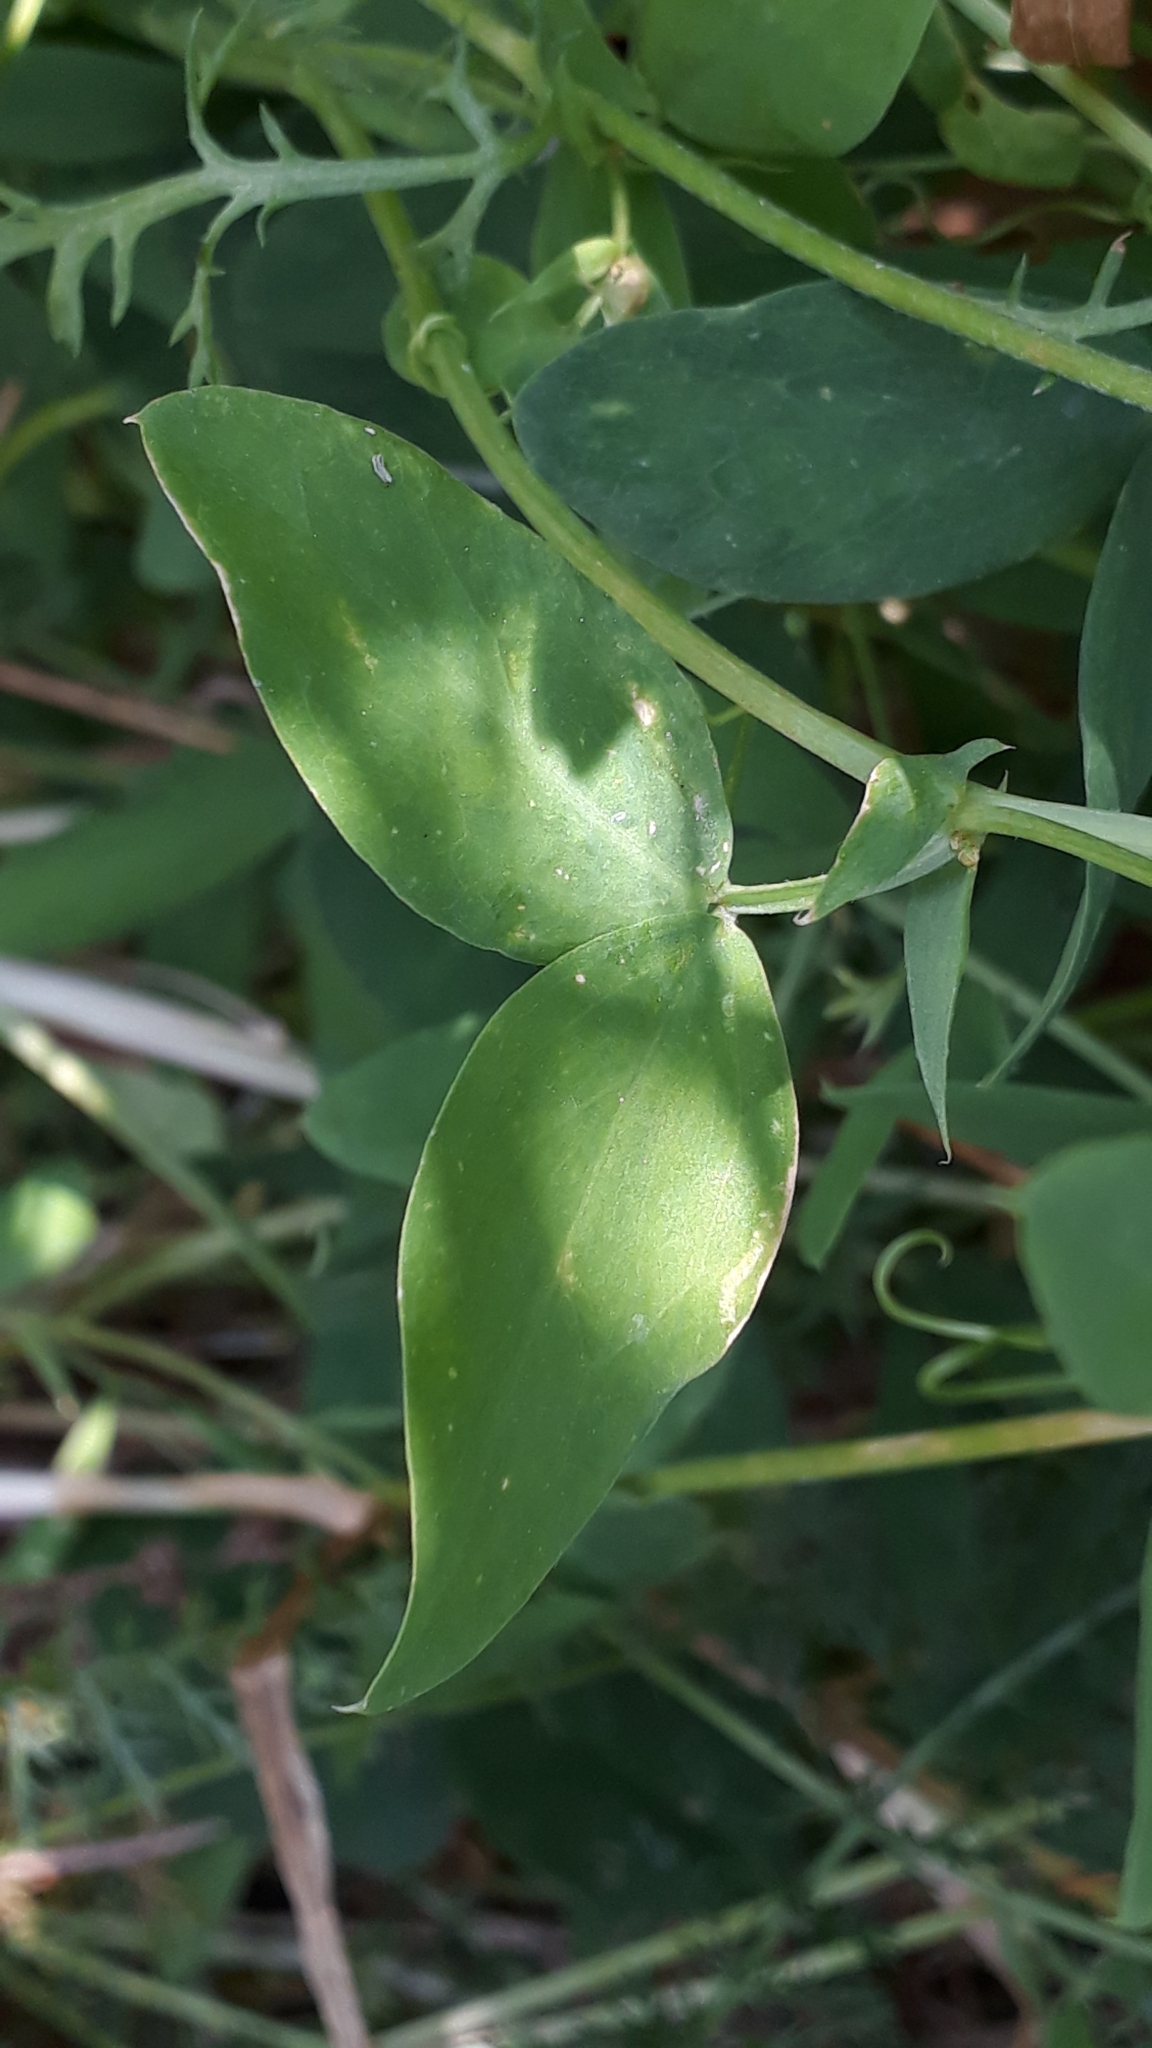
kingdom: Plantae
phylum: Tracheophyta
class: Magnoliopsida
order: Fabales
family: Fabaceae
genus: Lathyrus
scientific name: Lathyrus tuberosus
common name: Tuberous pea
